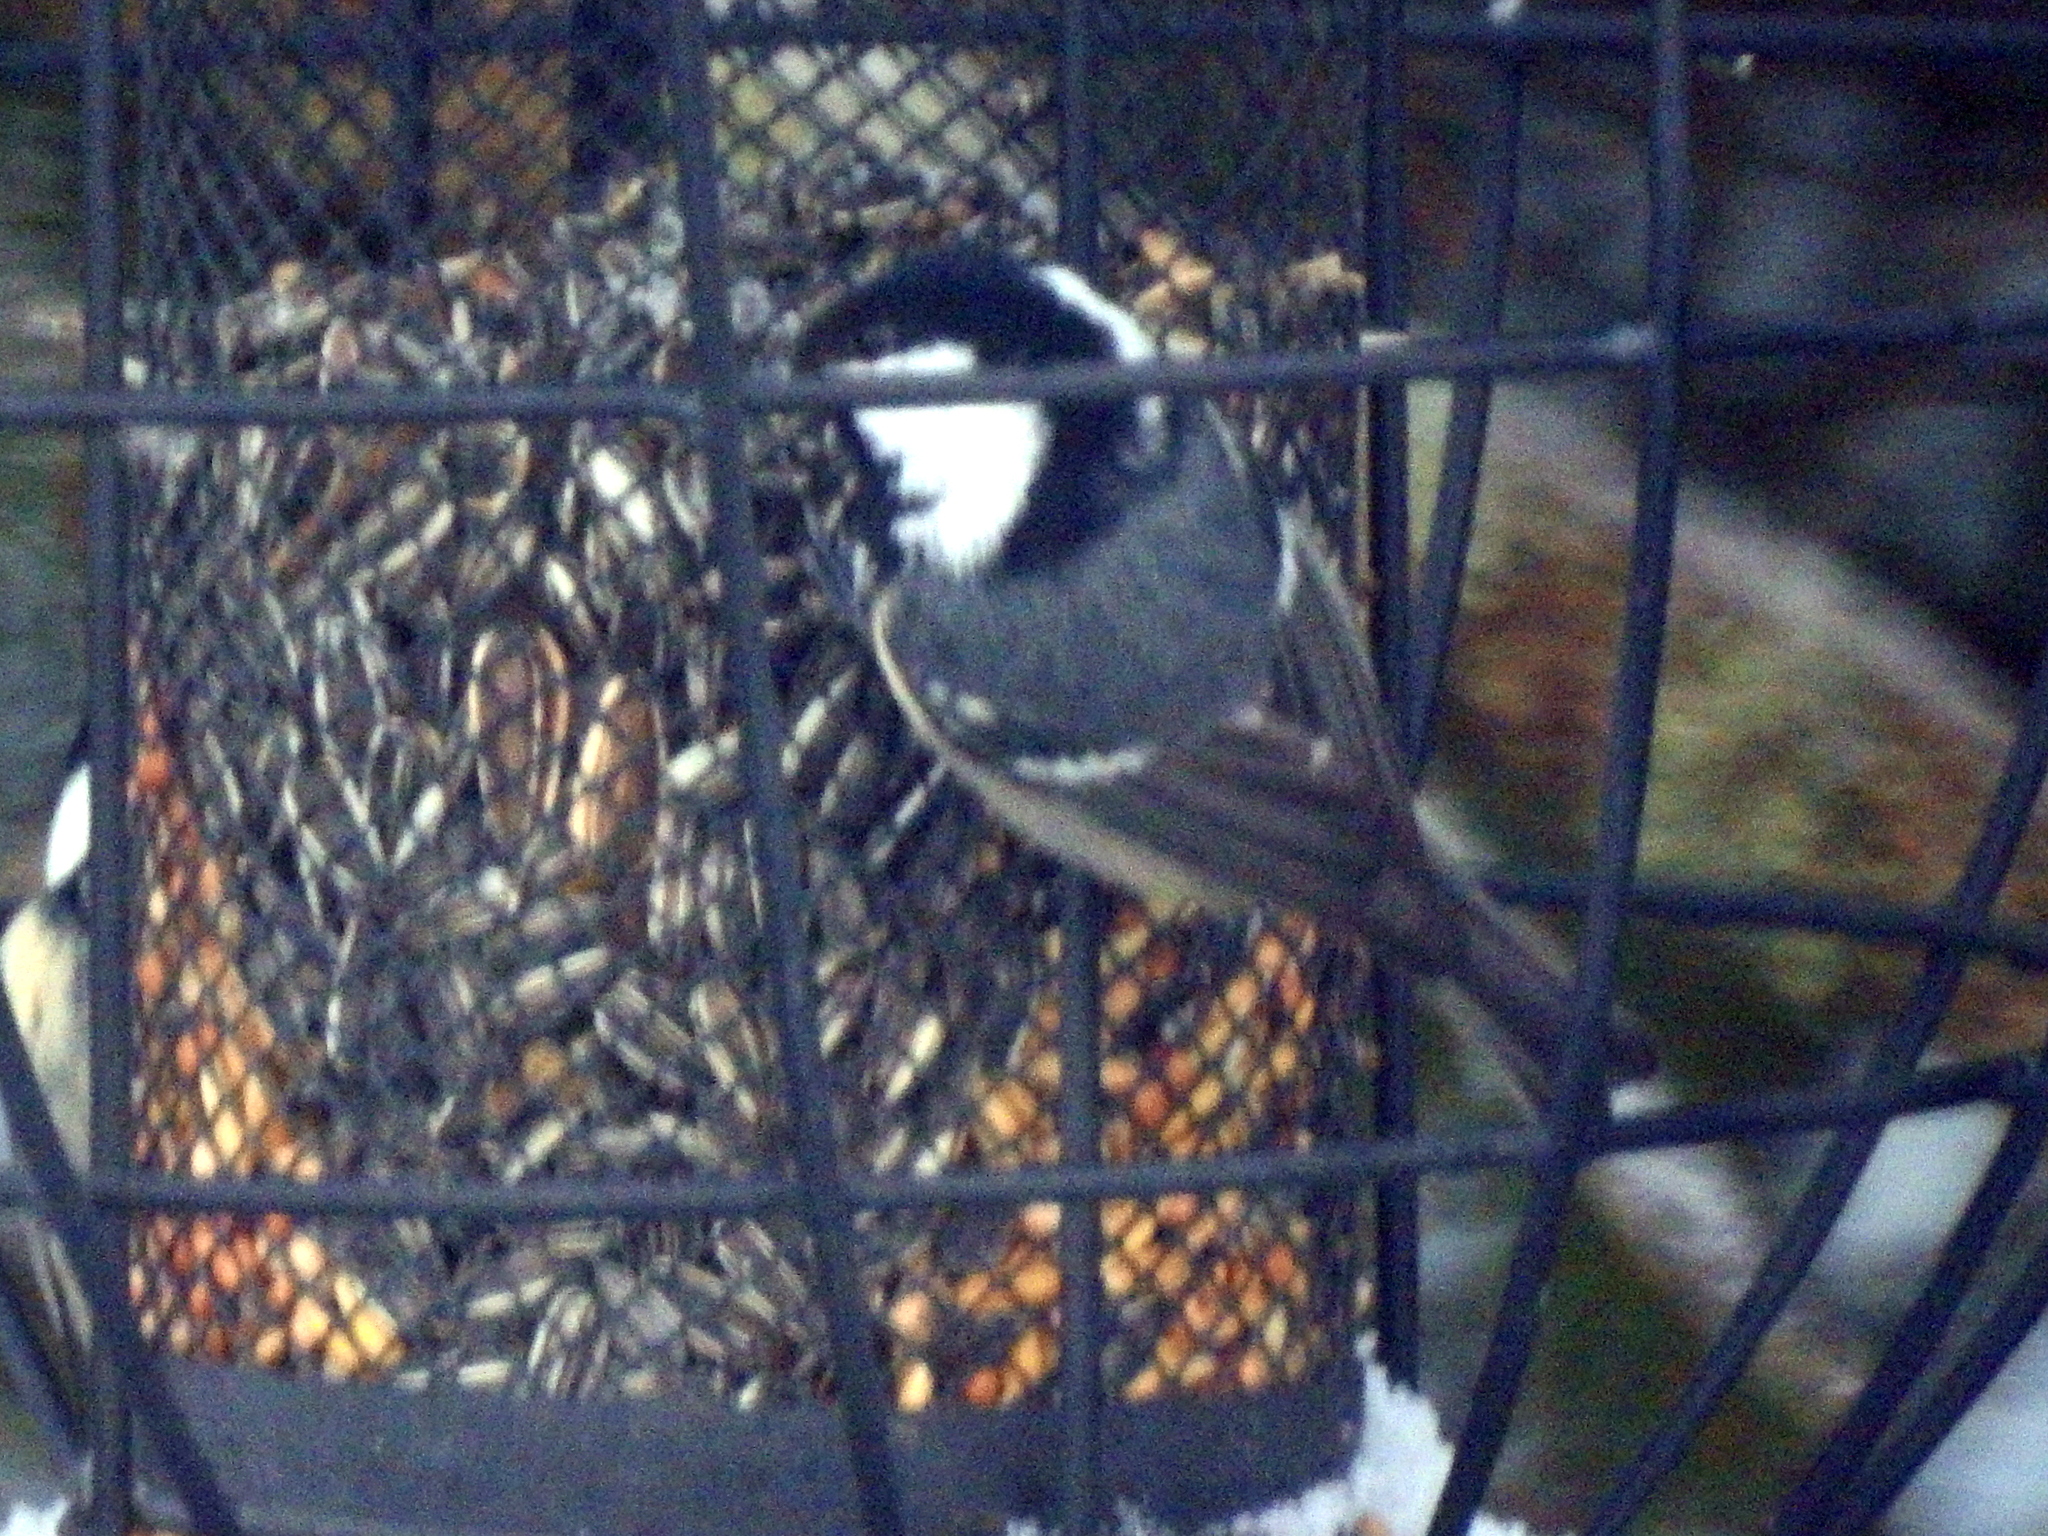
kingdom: Animalia
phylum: Chordata
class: Aves
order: Passeriformes
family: Paridae
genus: Periparus
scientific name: Periparus ater
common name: Coal tit
